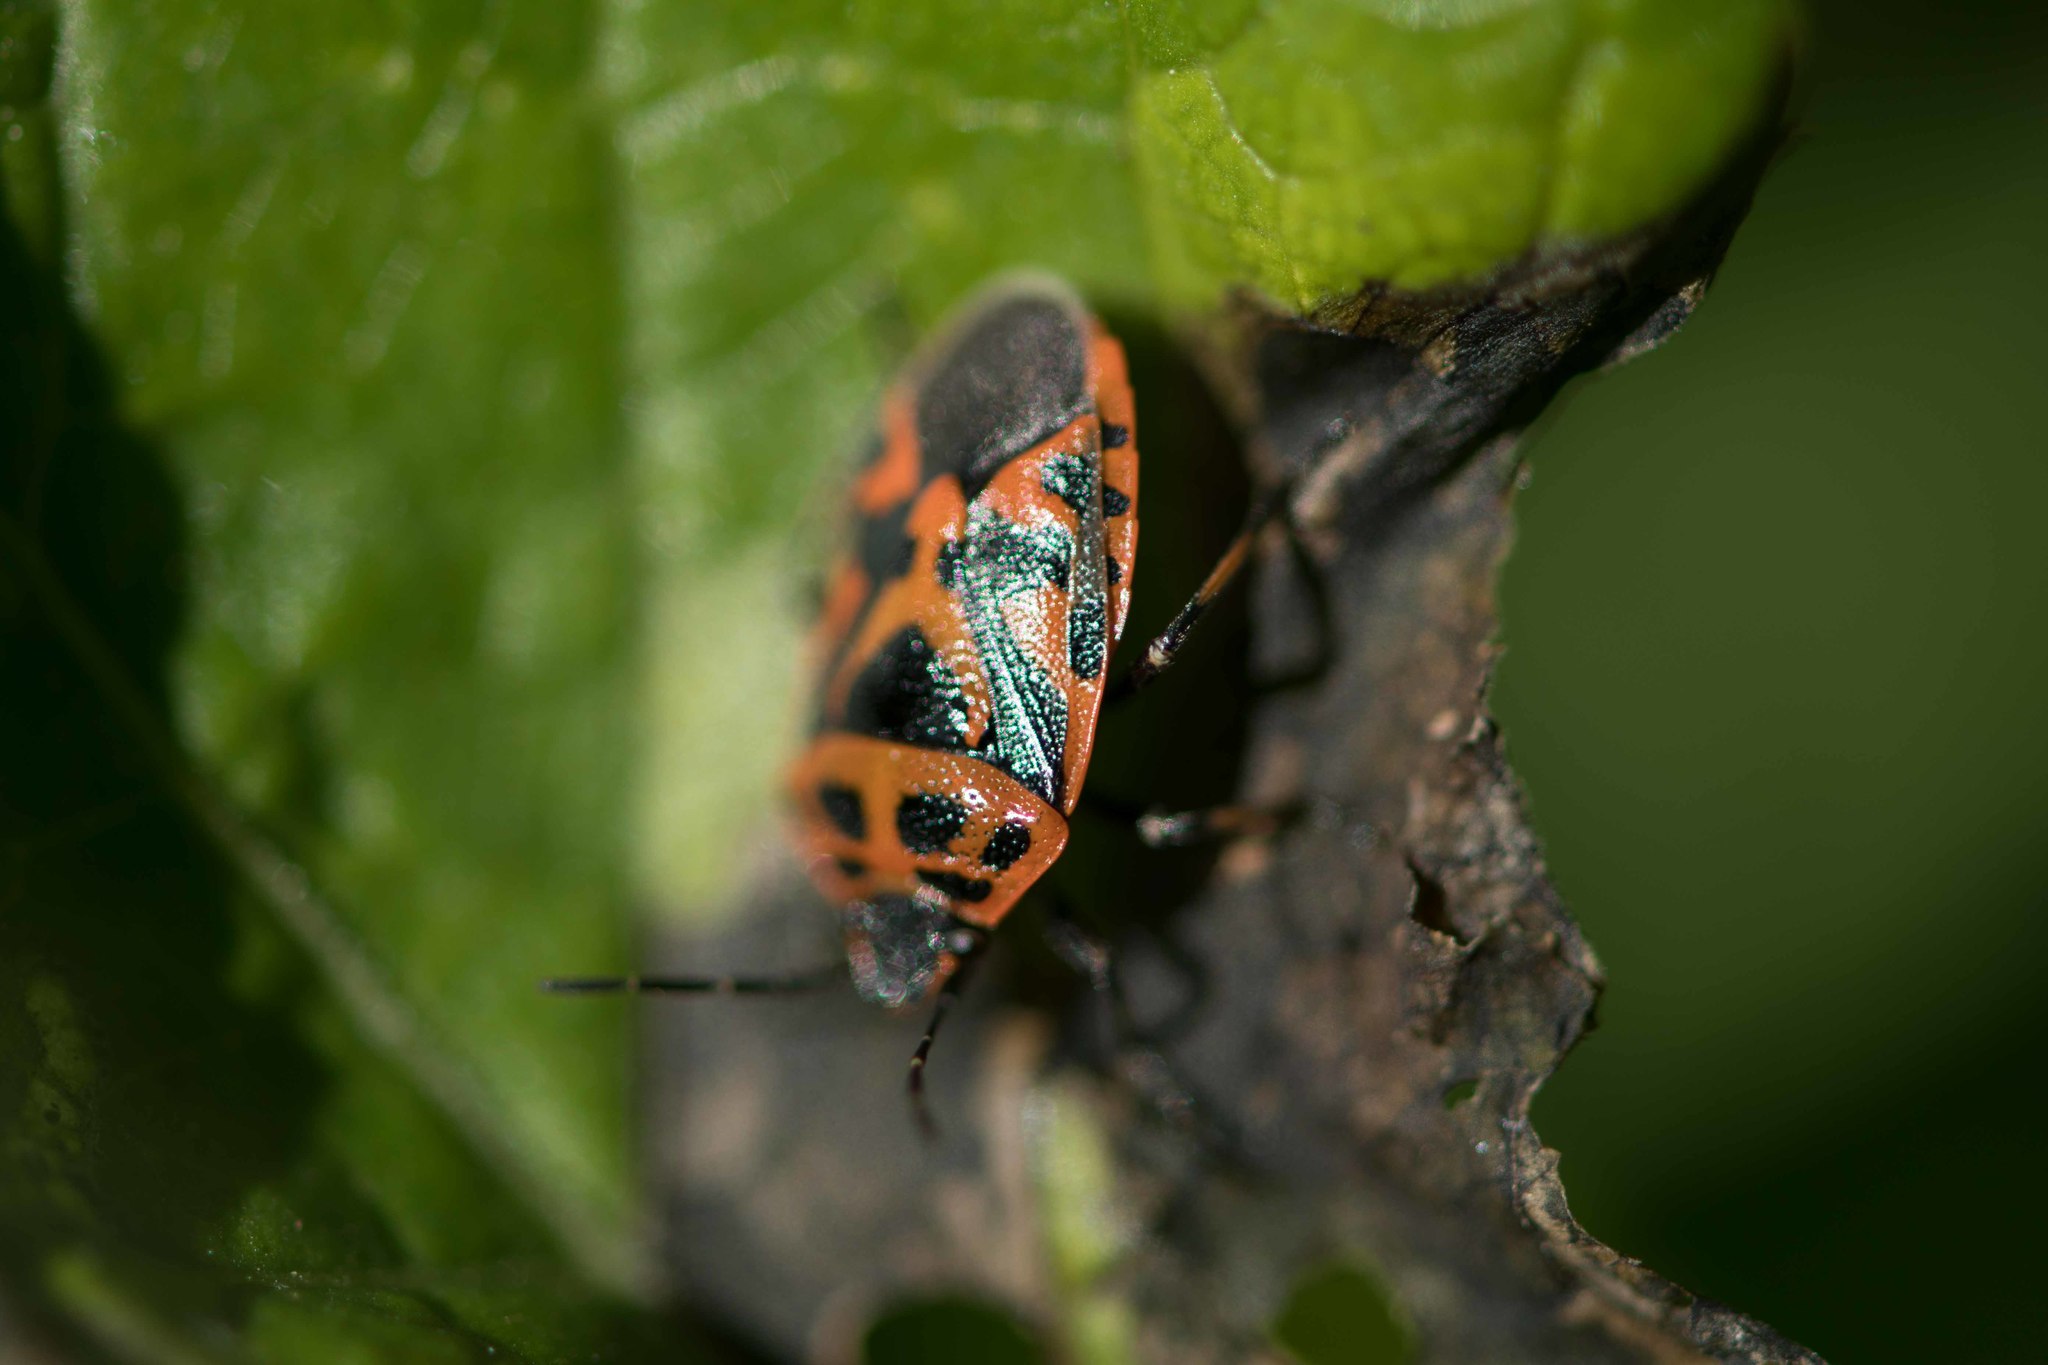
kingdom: Animalia
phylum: Arthropoda
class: Insecta
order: Hemiptera
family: Pentatomidae
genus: Eurydema
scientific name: Eurydema ornata
